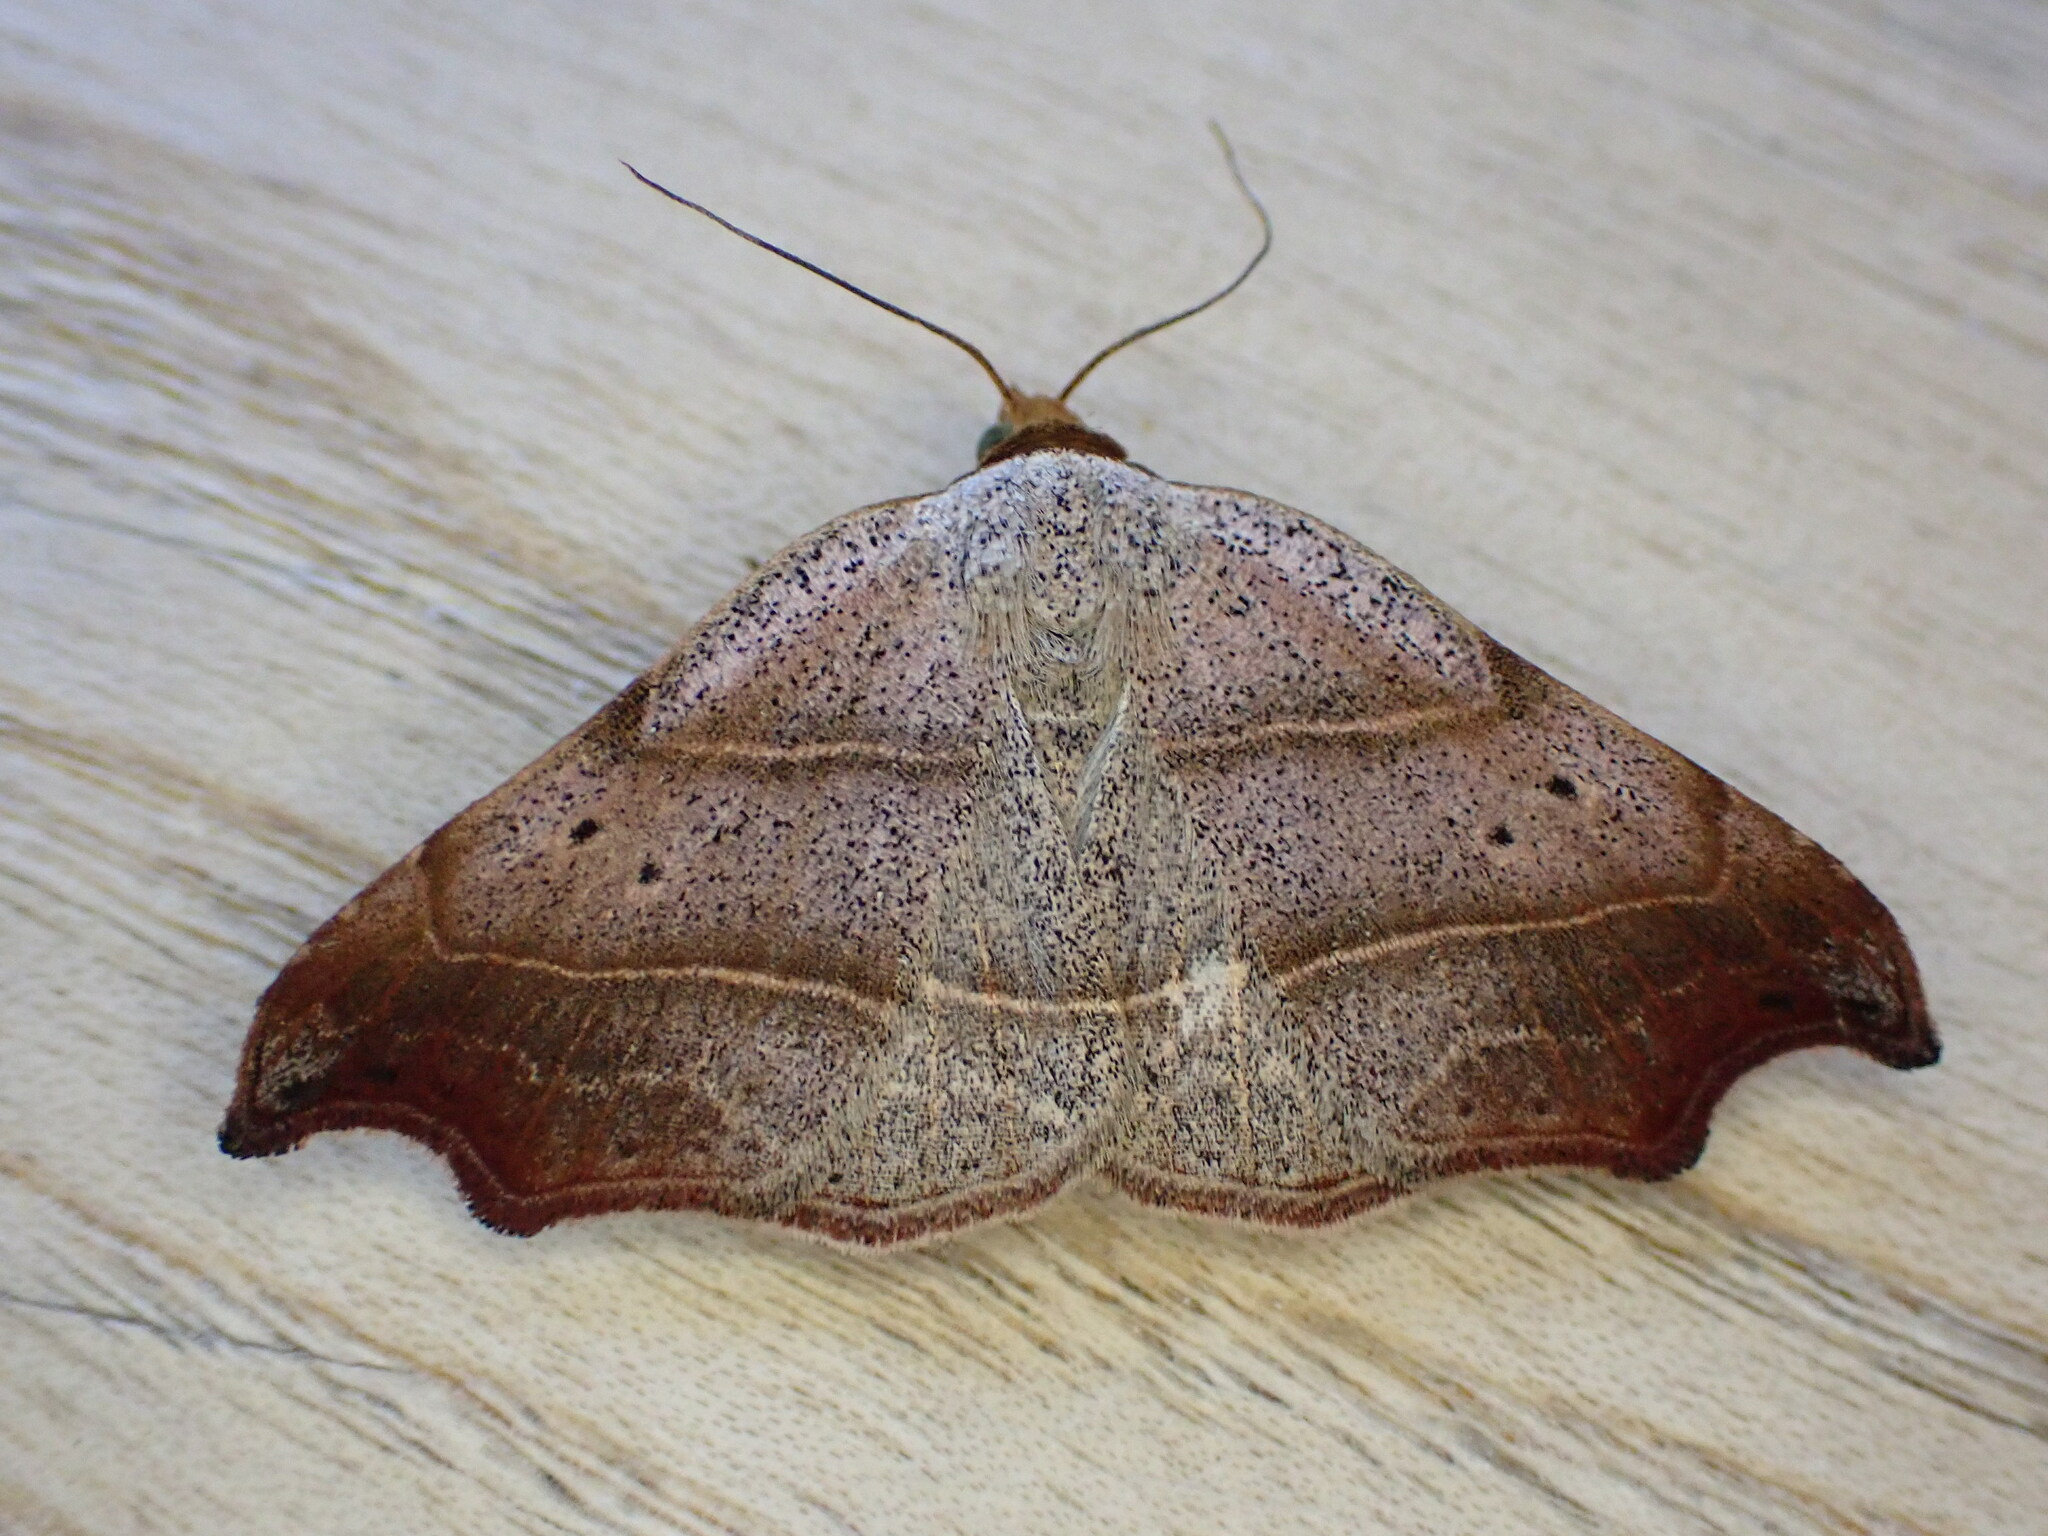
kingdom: Animalia
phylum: Arthropoda
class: Insecta
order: Lepidoptera
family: Erebidae
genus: Laspeyria
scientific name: Laspeyria flexula
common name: Beautiful hook-tip
